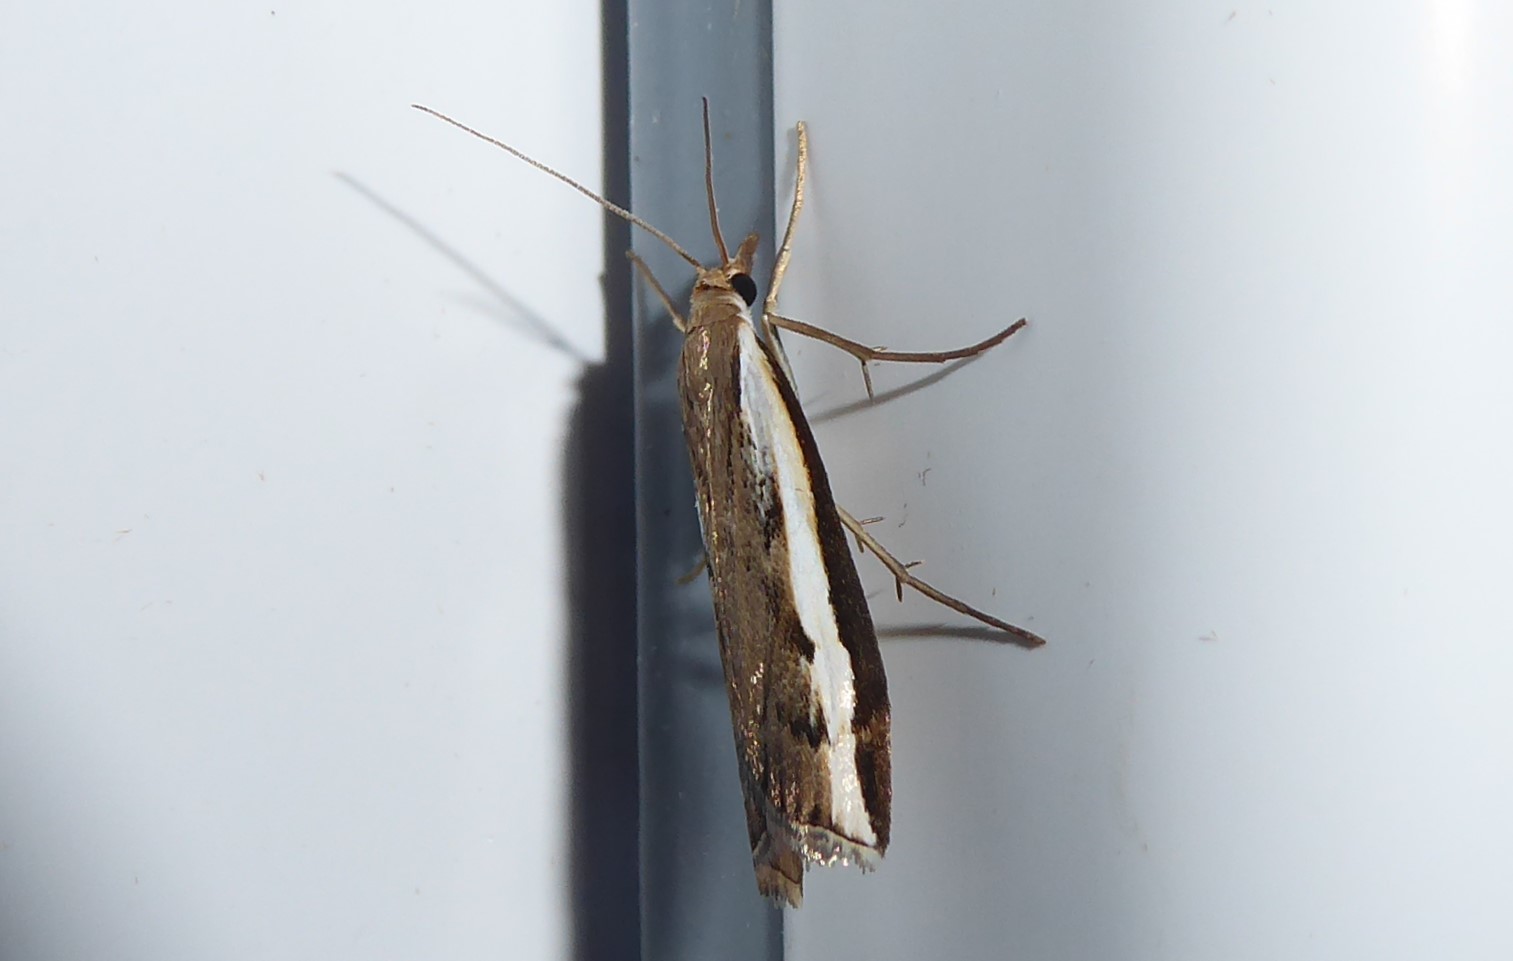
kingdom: Animalia
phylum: Arthropoda
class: Insecta
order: Lepidoptera
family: Crambidae
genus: Orocrambus
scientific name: Orocrambus flexuosellus
